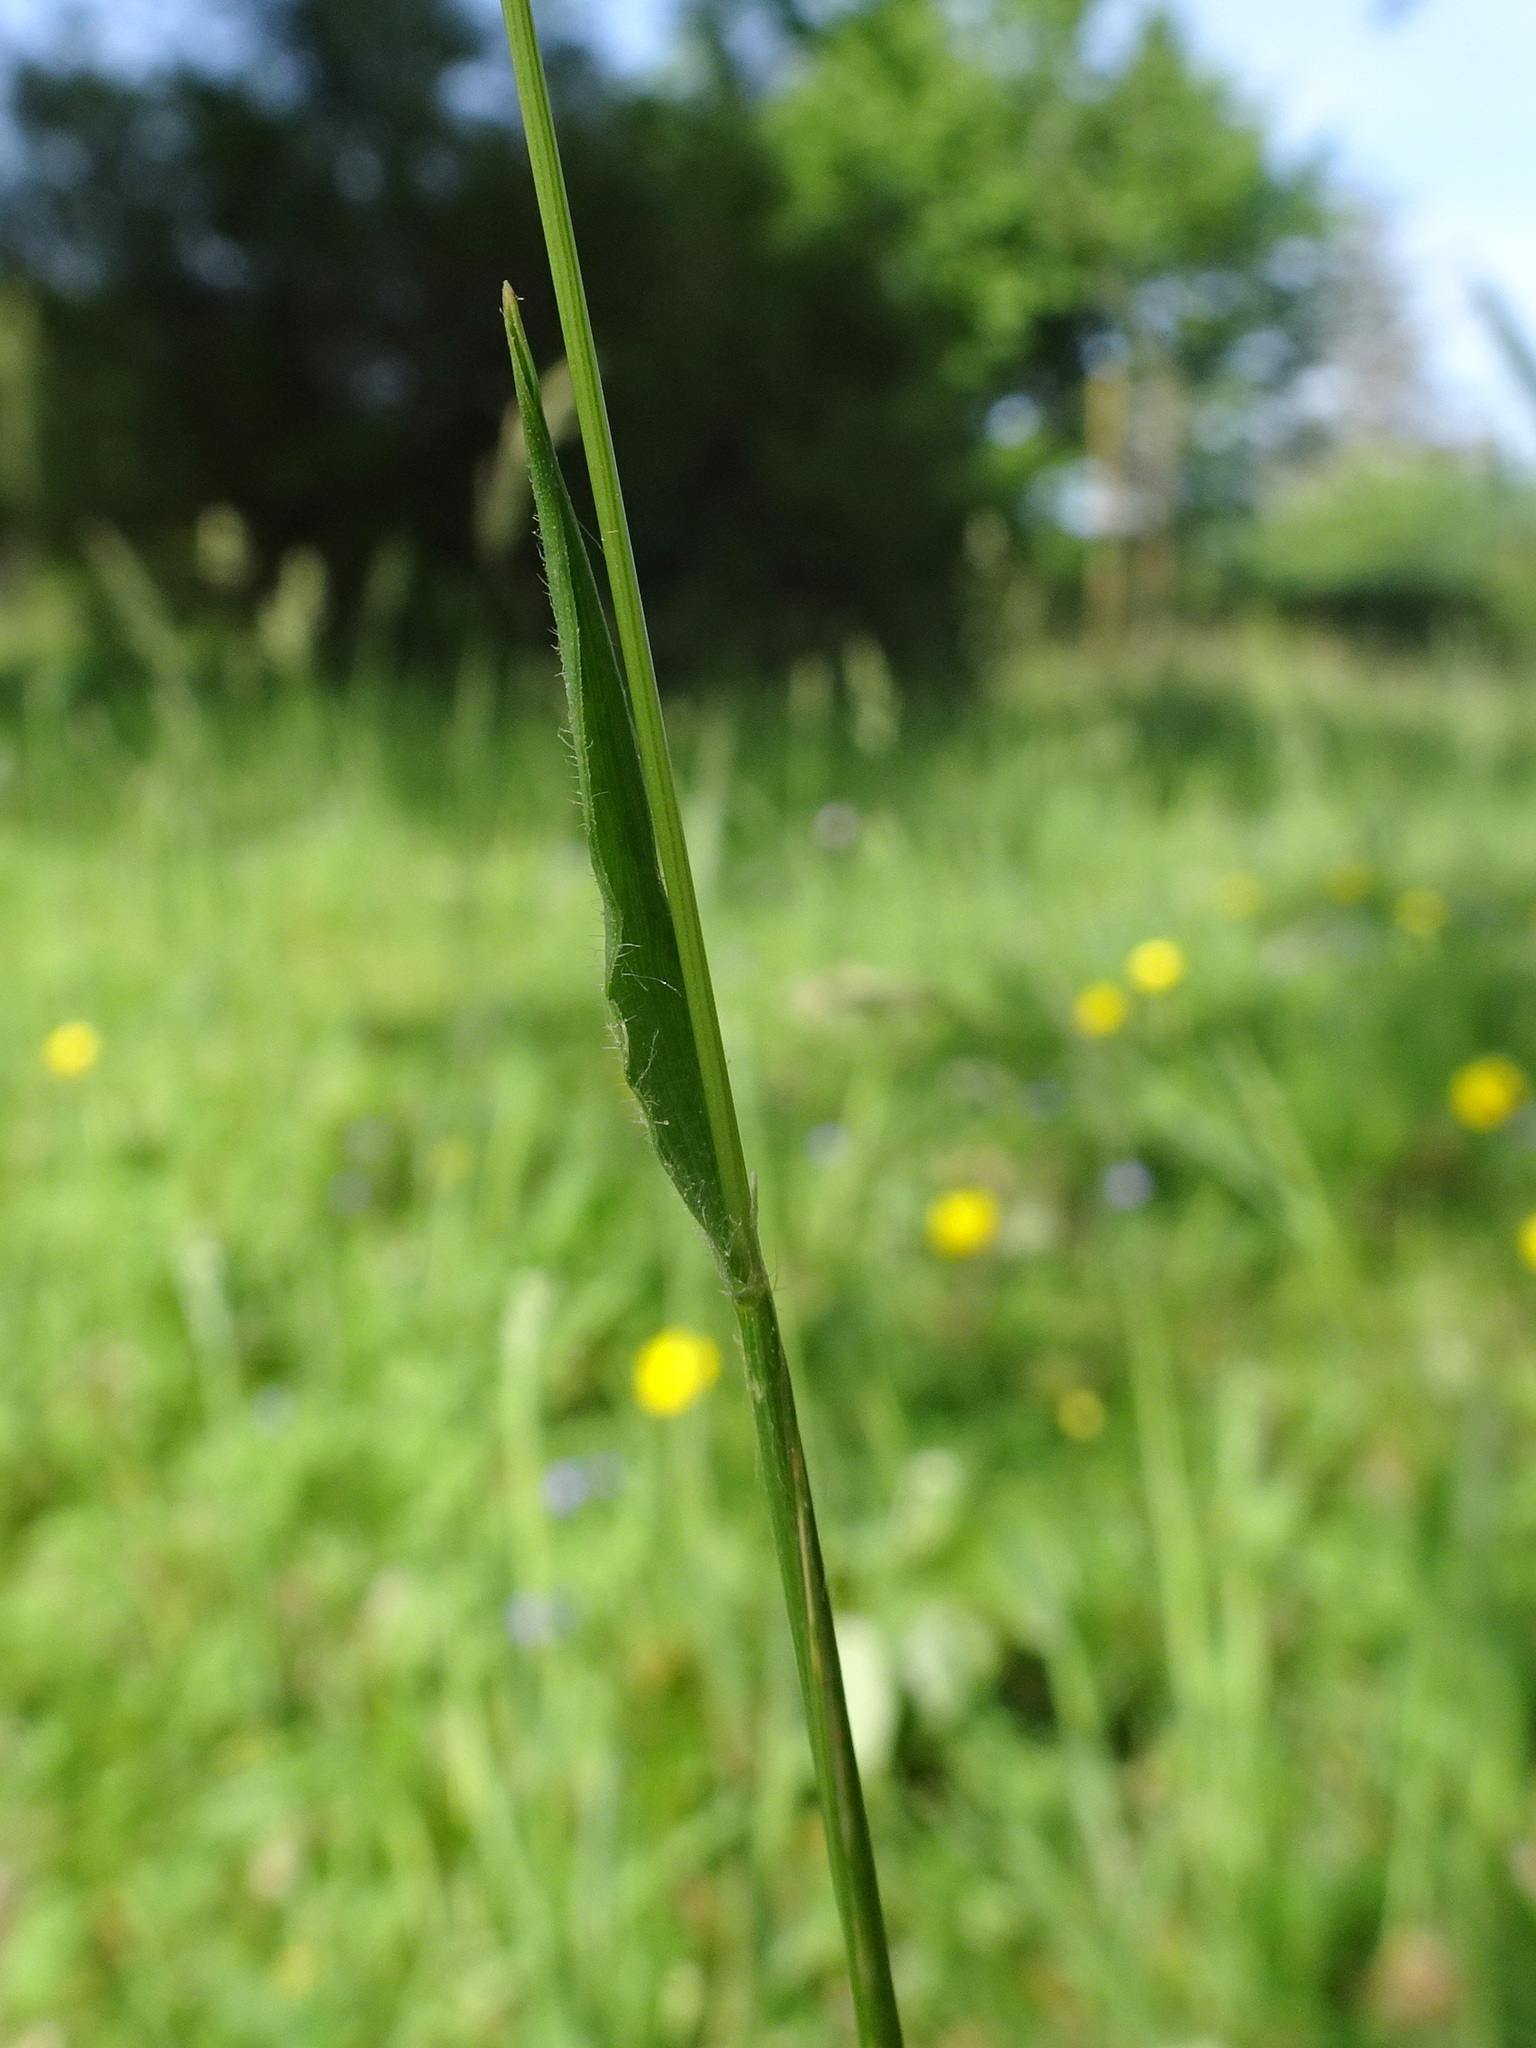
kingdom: Plantae
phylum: Tracheophyta
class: Liliopsida
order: Poales
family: Poaceae
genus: Anthoxanthum
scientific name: Anthoxanthum odoratum
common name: Sweet vernalgrass
